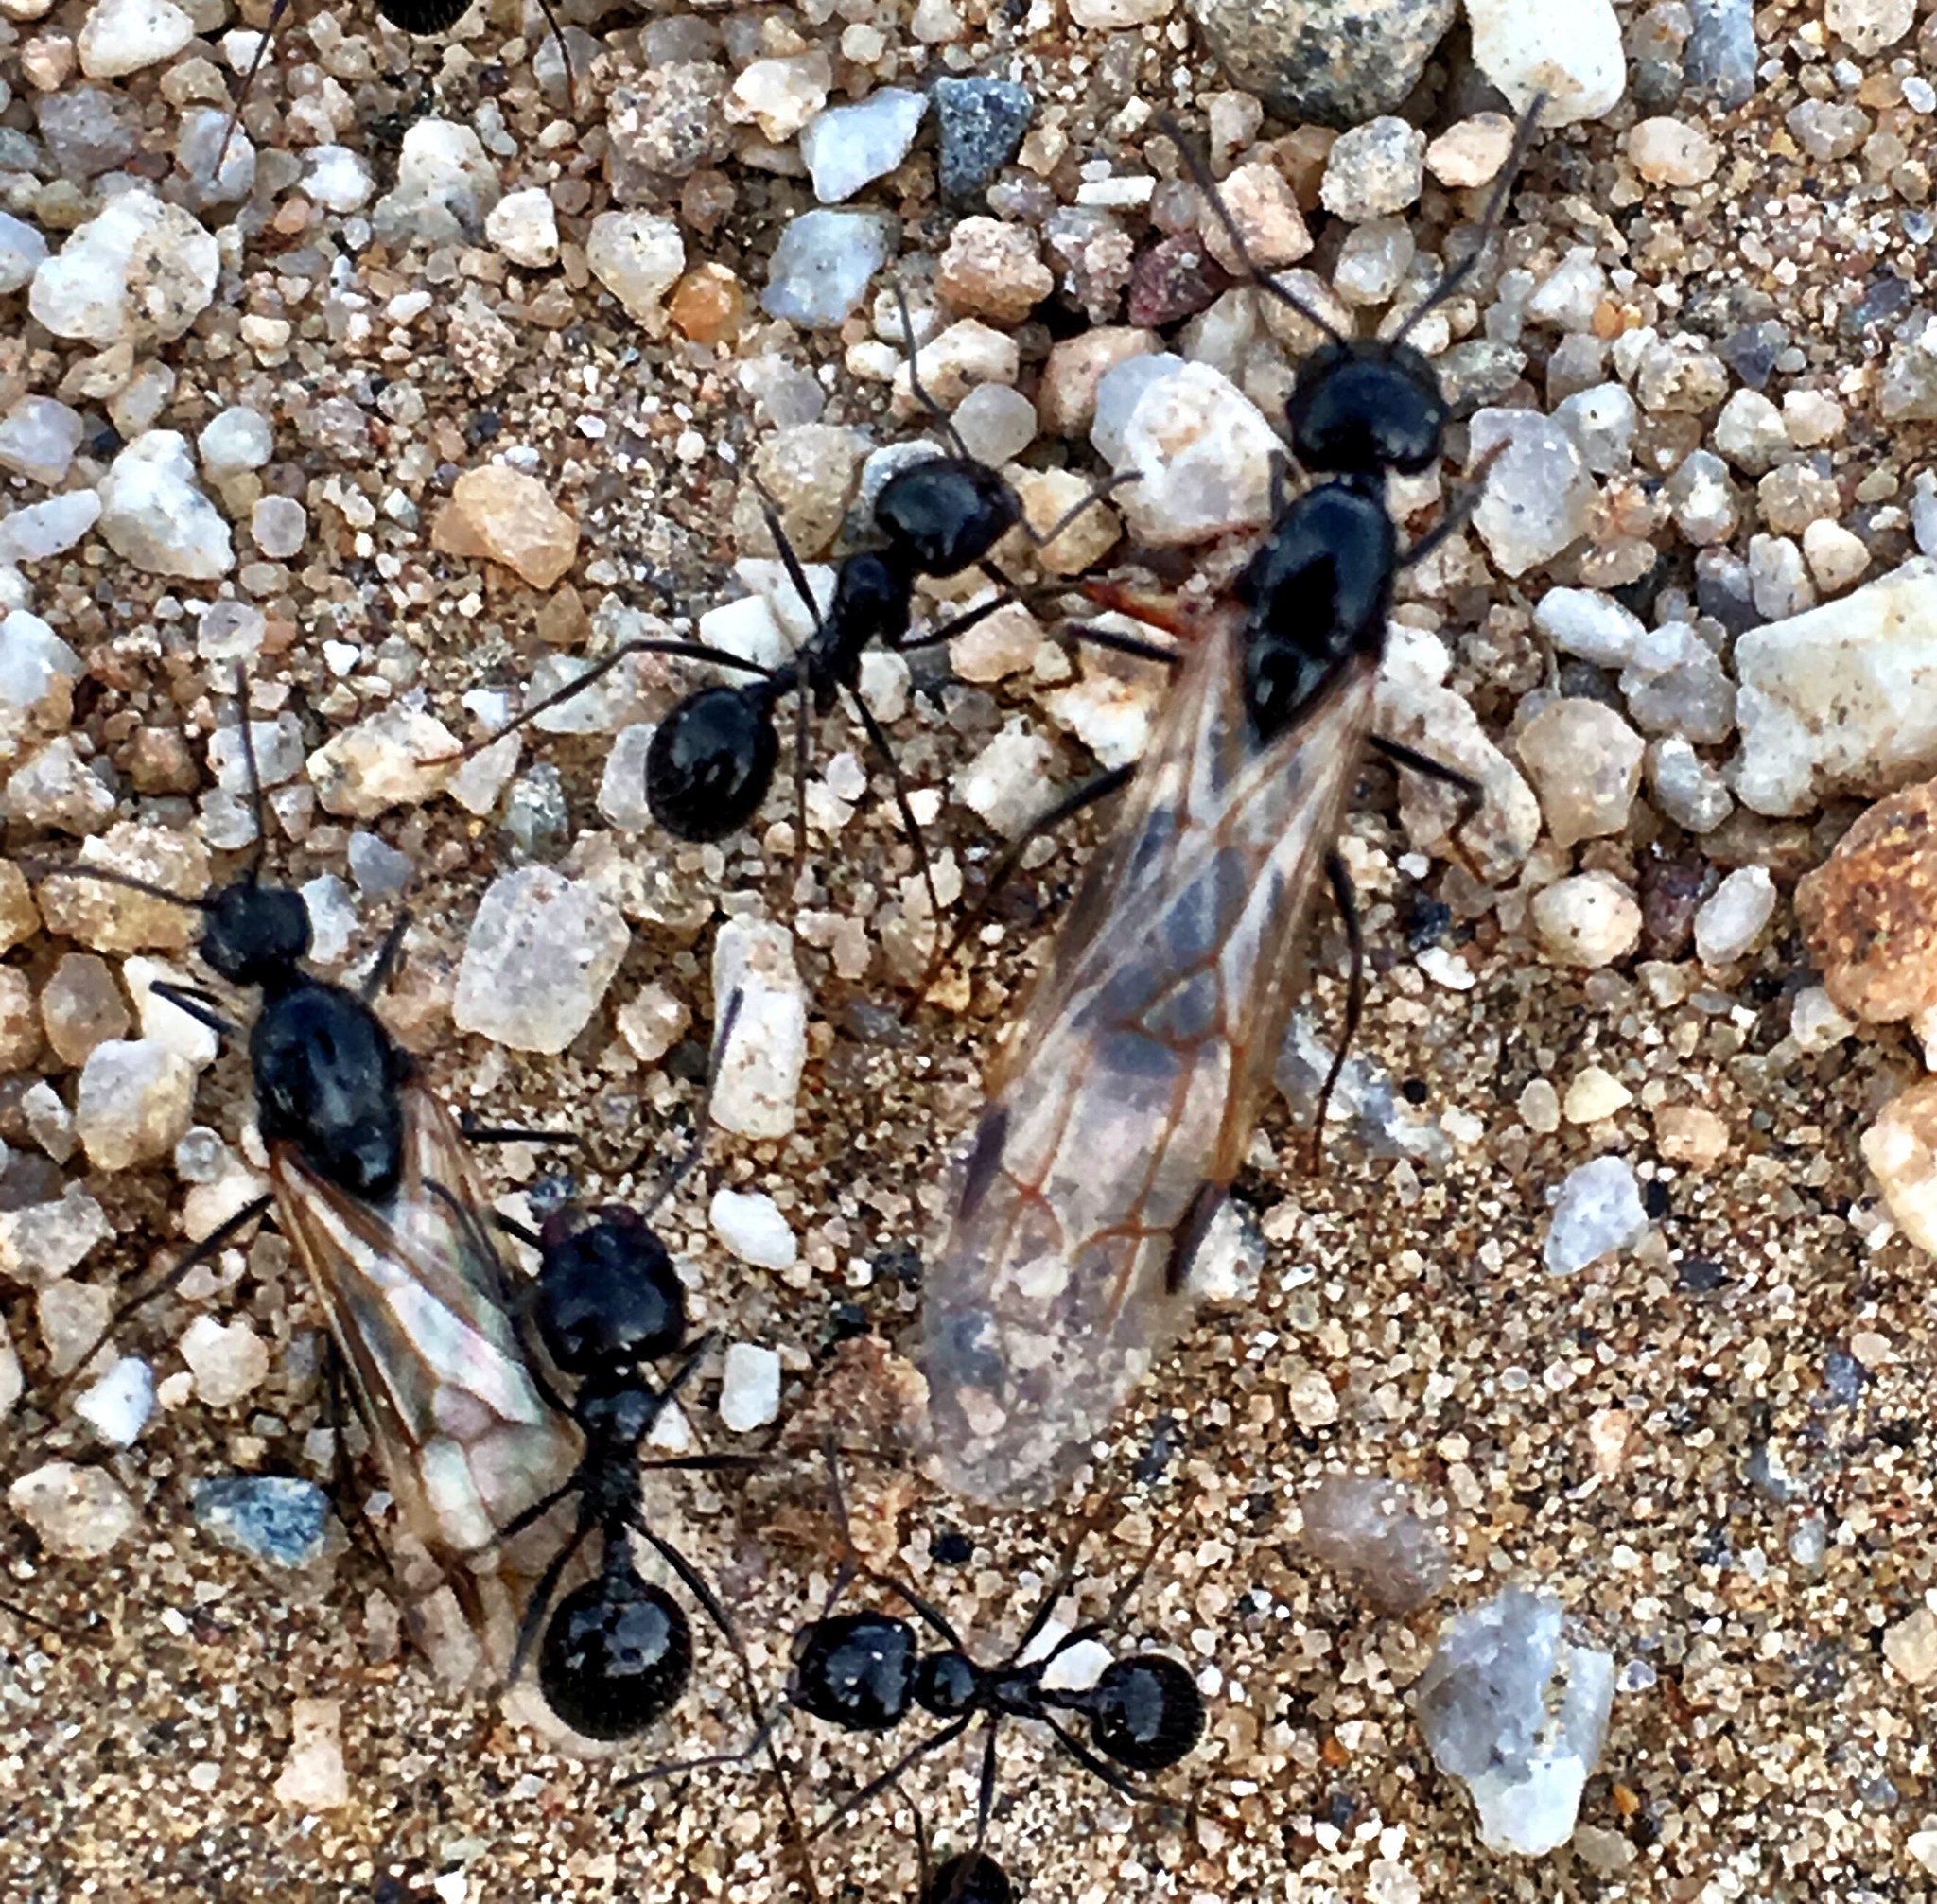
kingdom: Animalia
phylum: Arthropoda
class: Insecta
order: Hymenoptera
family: Formicidae
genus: Messor
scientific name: Messor pergandei
